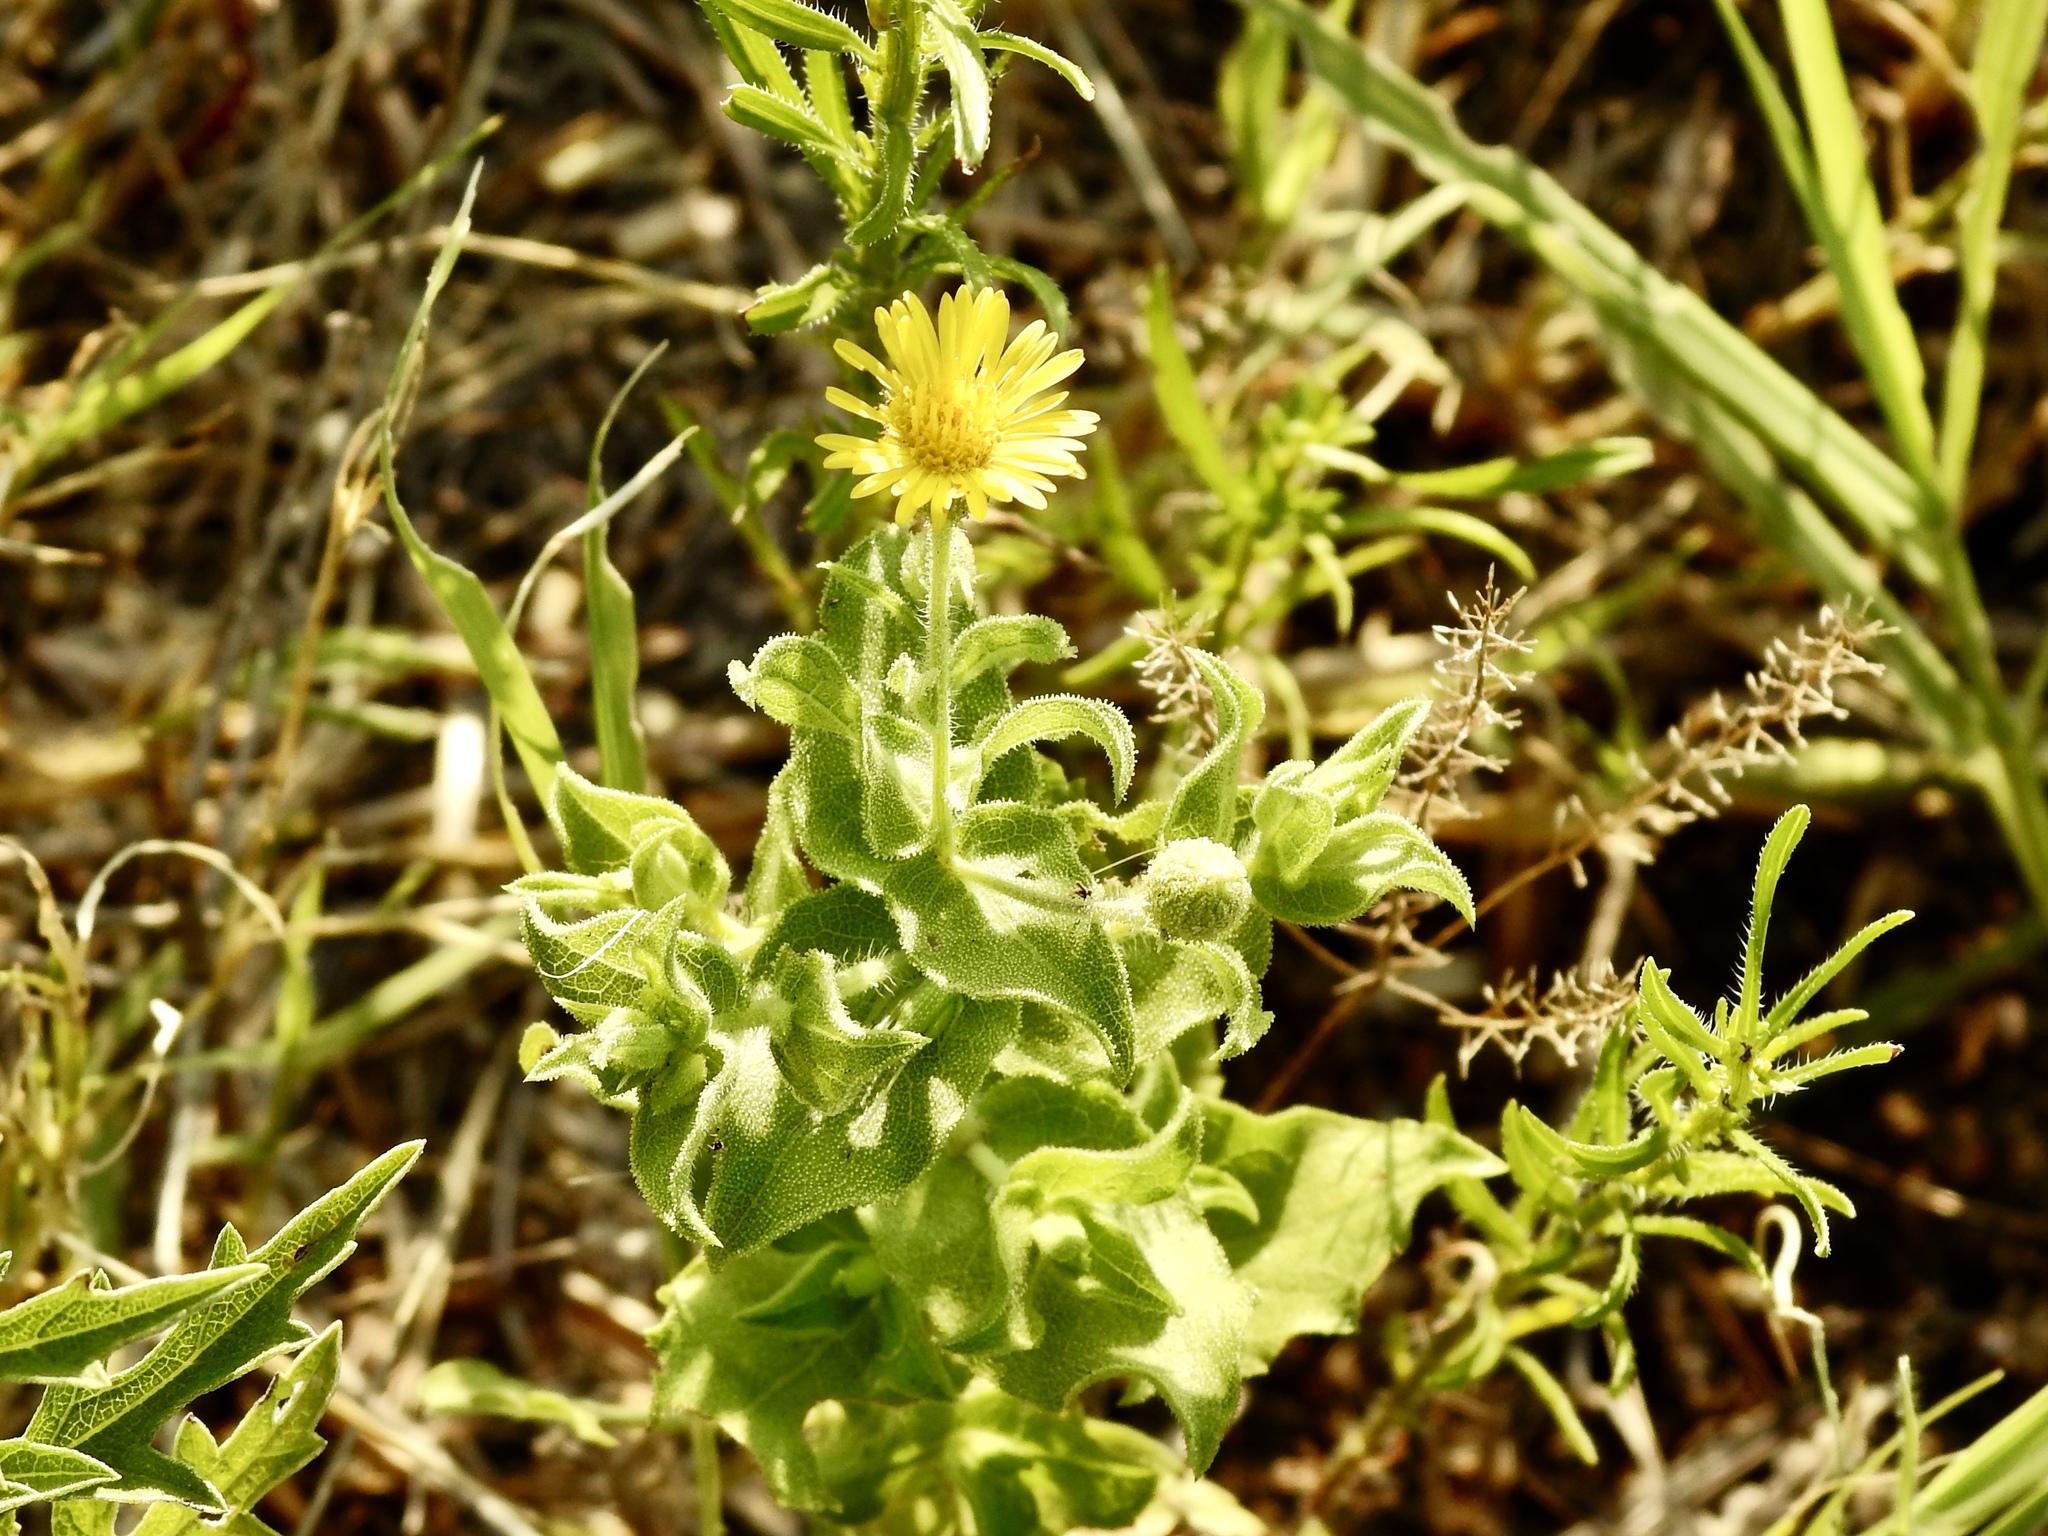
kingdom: Plantae
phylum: Tracheophyta
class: Magnoliopsida
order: Asterales
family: Asteraceae
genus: Heterotheca
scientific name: Heterotheca subaxillaris
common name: Camphorweed
